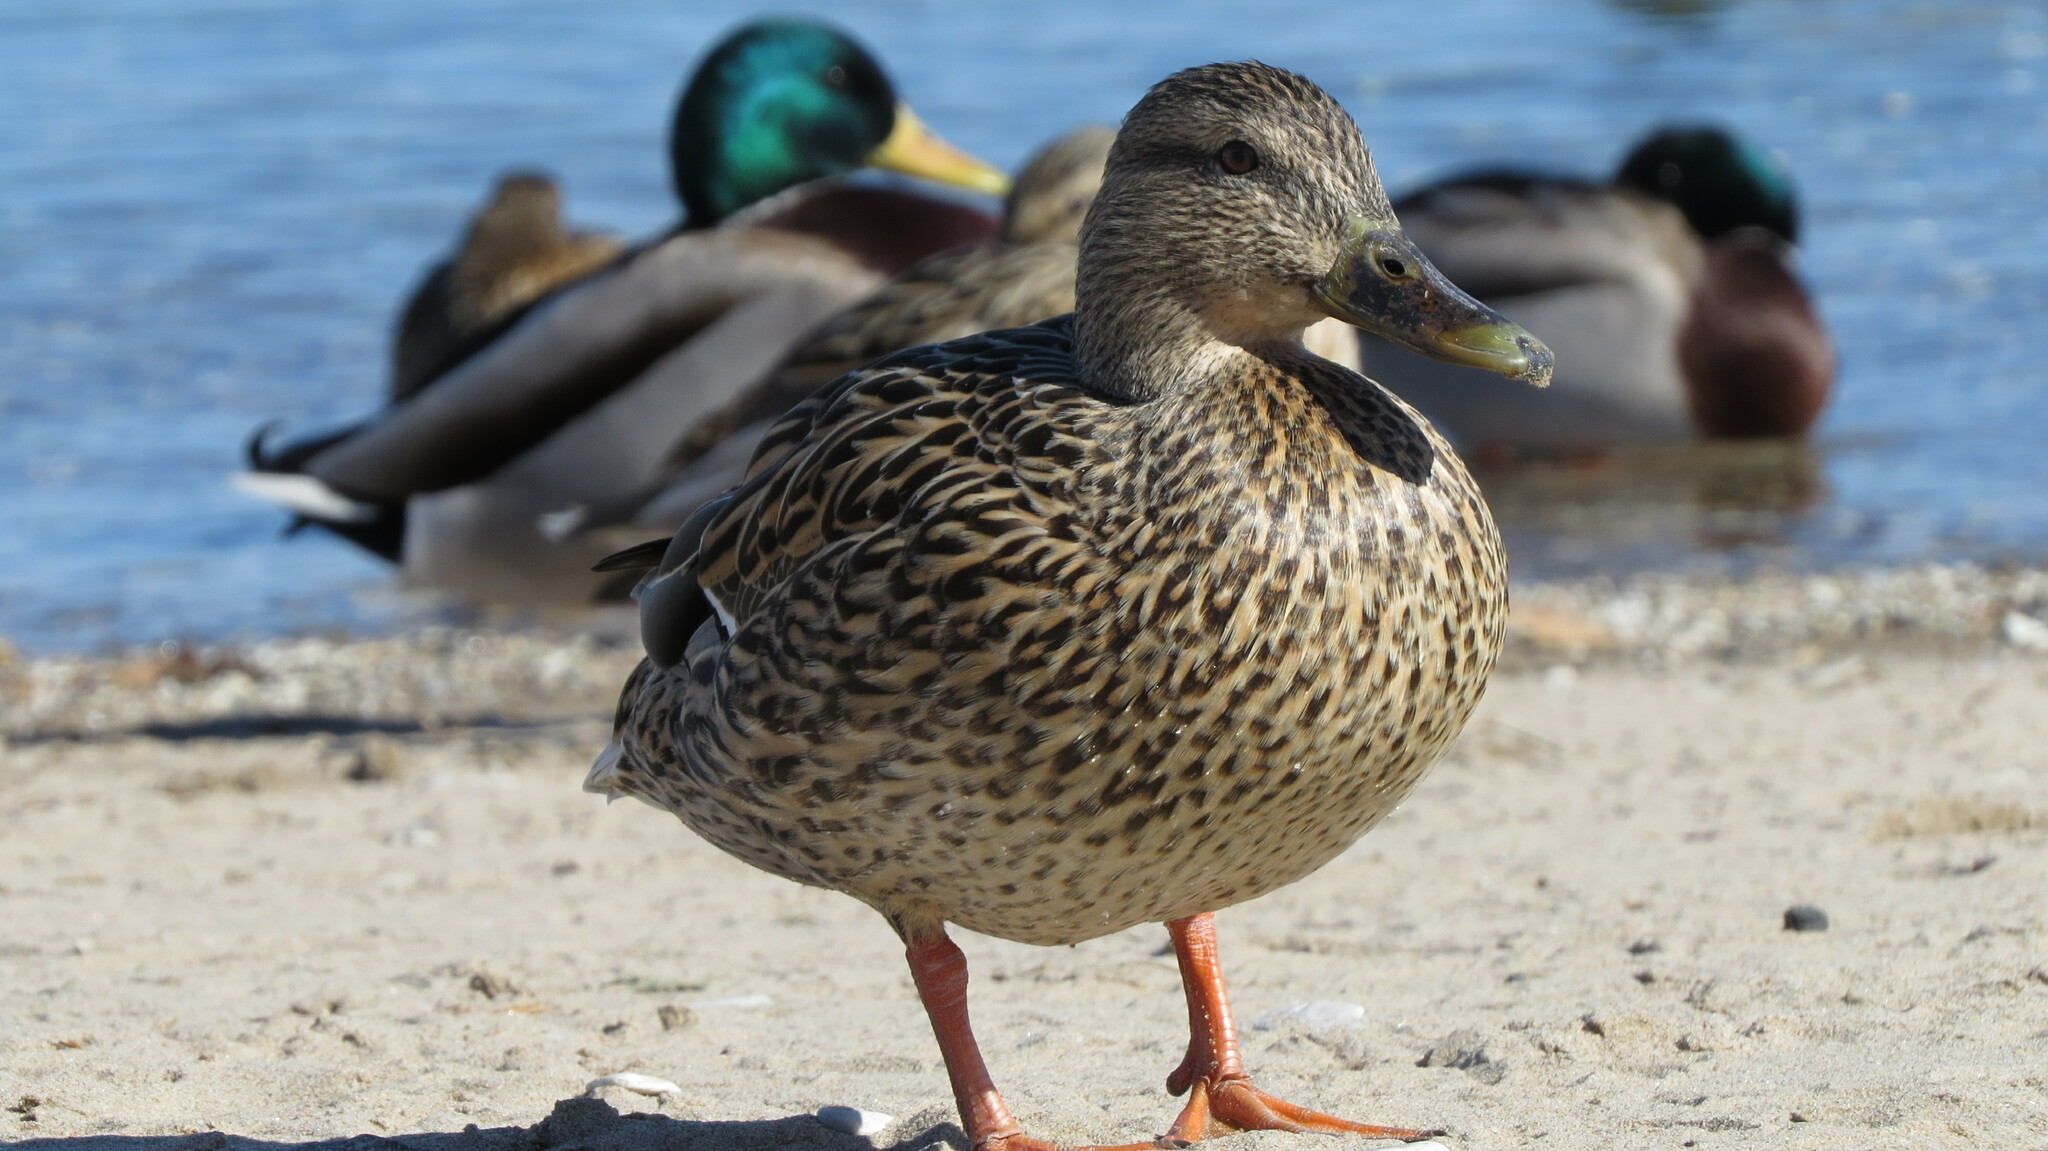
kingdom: Animalia
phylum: Chordata
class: Aves
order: Anseriformes
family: Anatidae
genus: Anas
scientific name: Anas platyrhynchos
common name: Mallard
